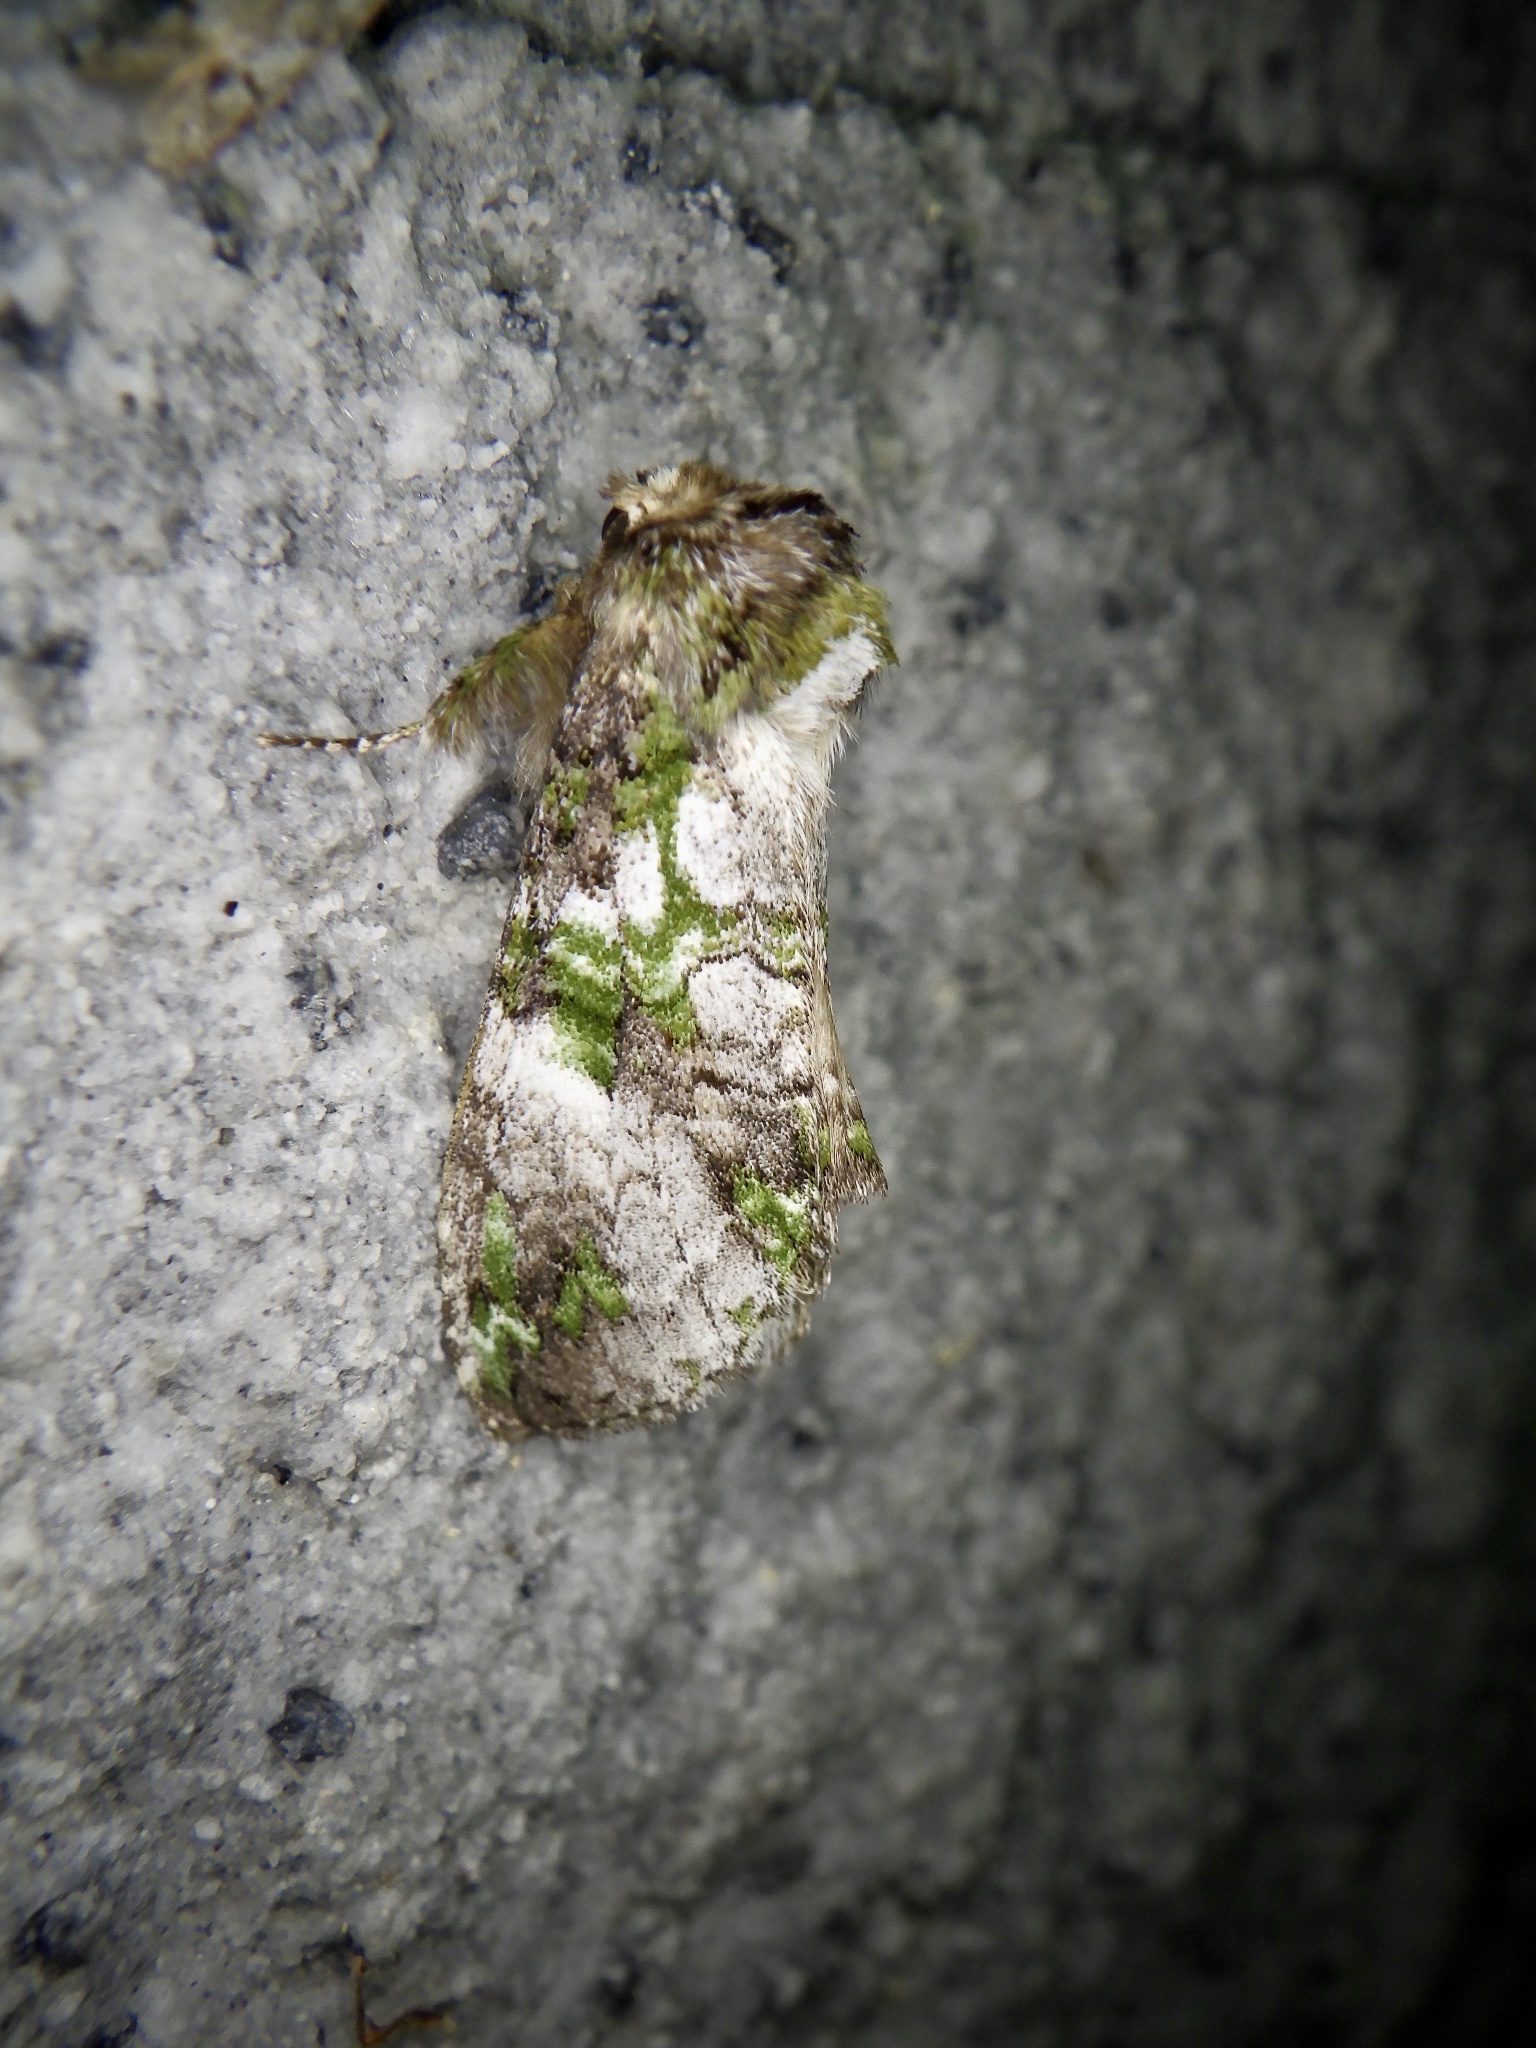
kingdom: Animalia
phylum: Arthropoda
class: Insecta
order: Lepidoptera
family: Notodontidae
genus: Ellida
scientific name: Ellida viridimixta
